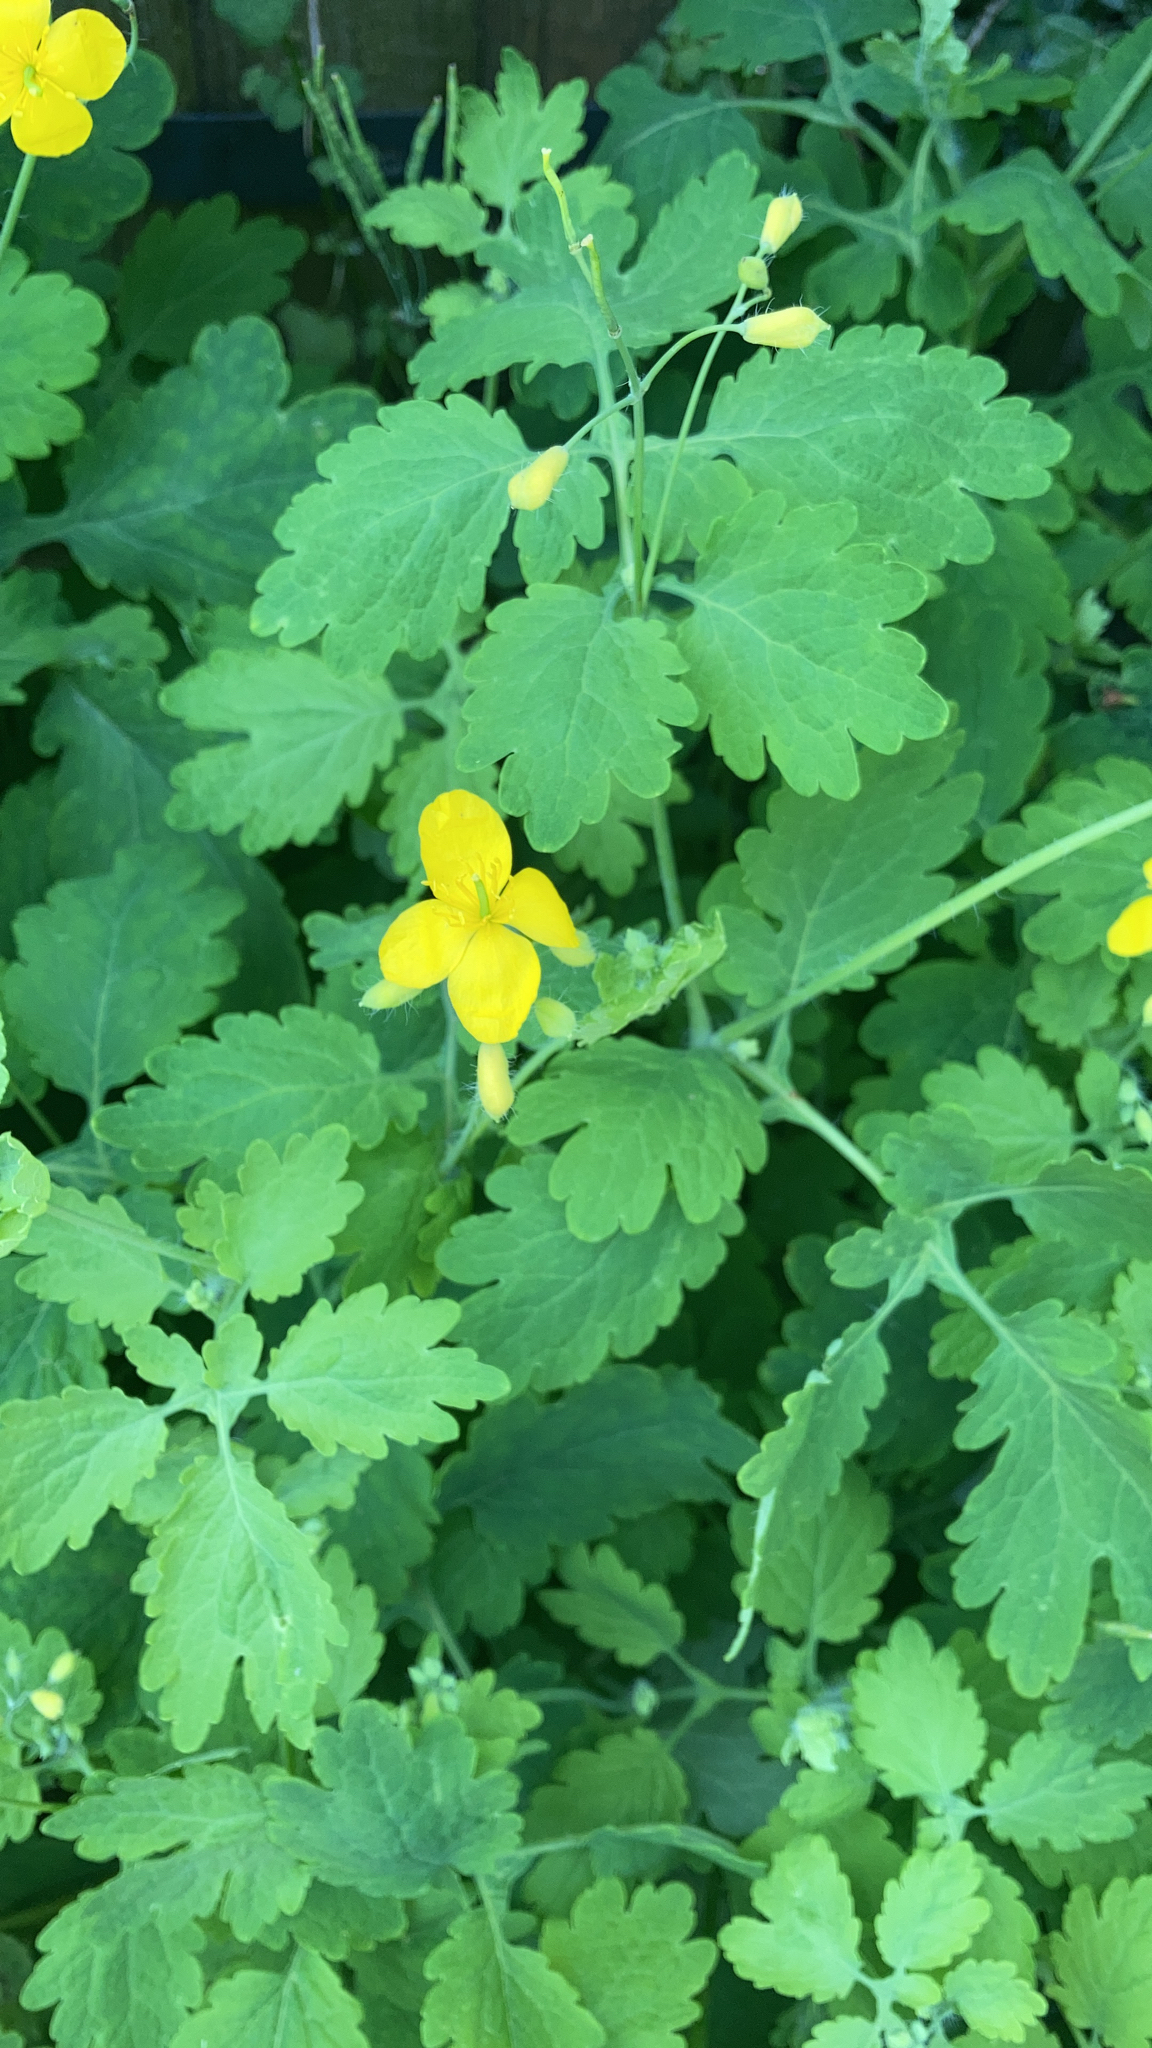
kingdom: Plantae
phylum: Tracheophyta
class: Magnoliopsida
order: Ranunculales
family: Papaveraceae
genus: Chelidonium
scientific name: Chelidonium majus
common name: Greater celandine
